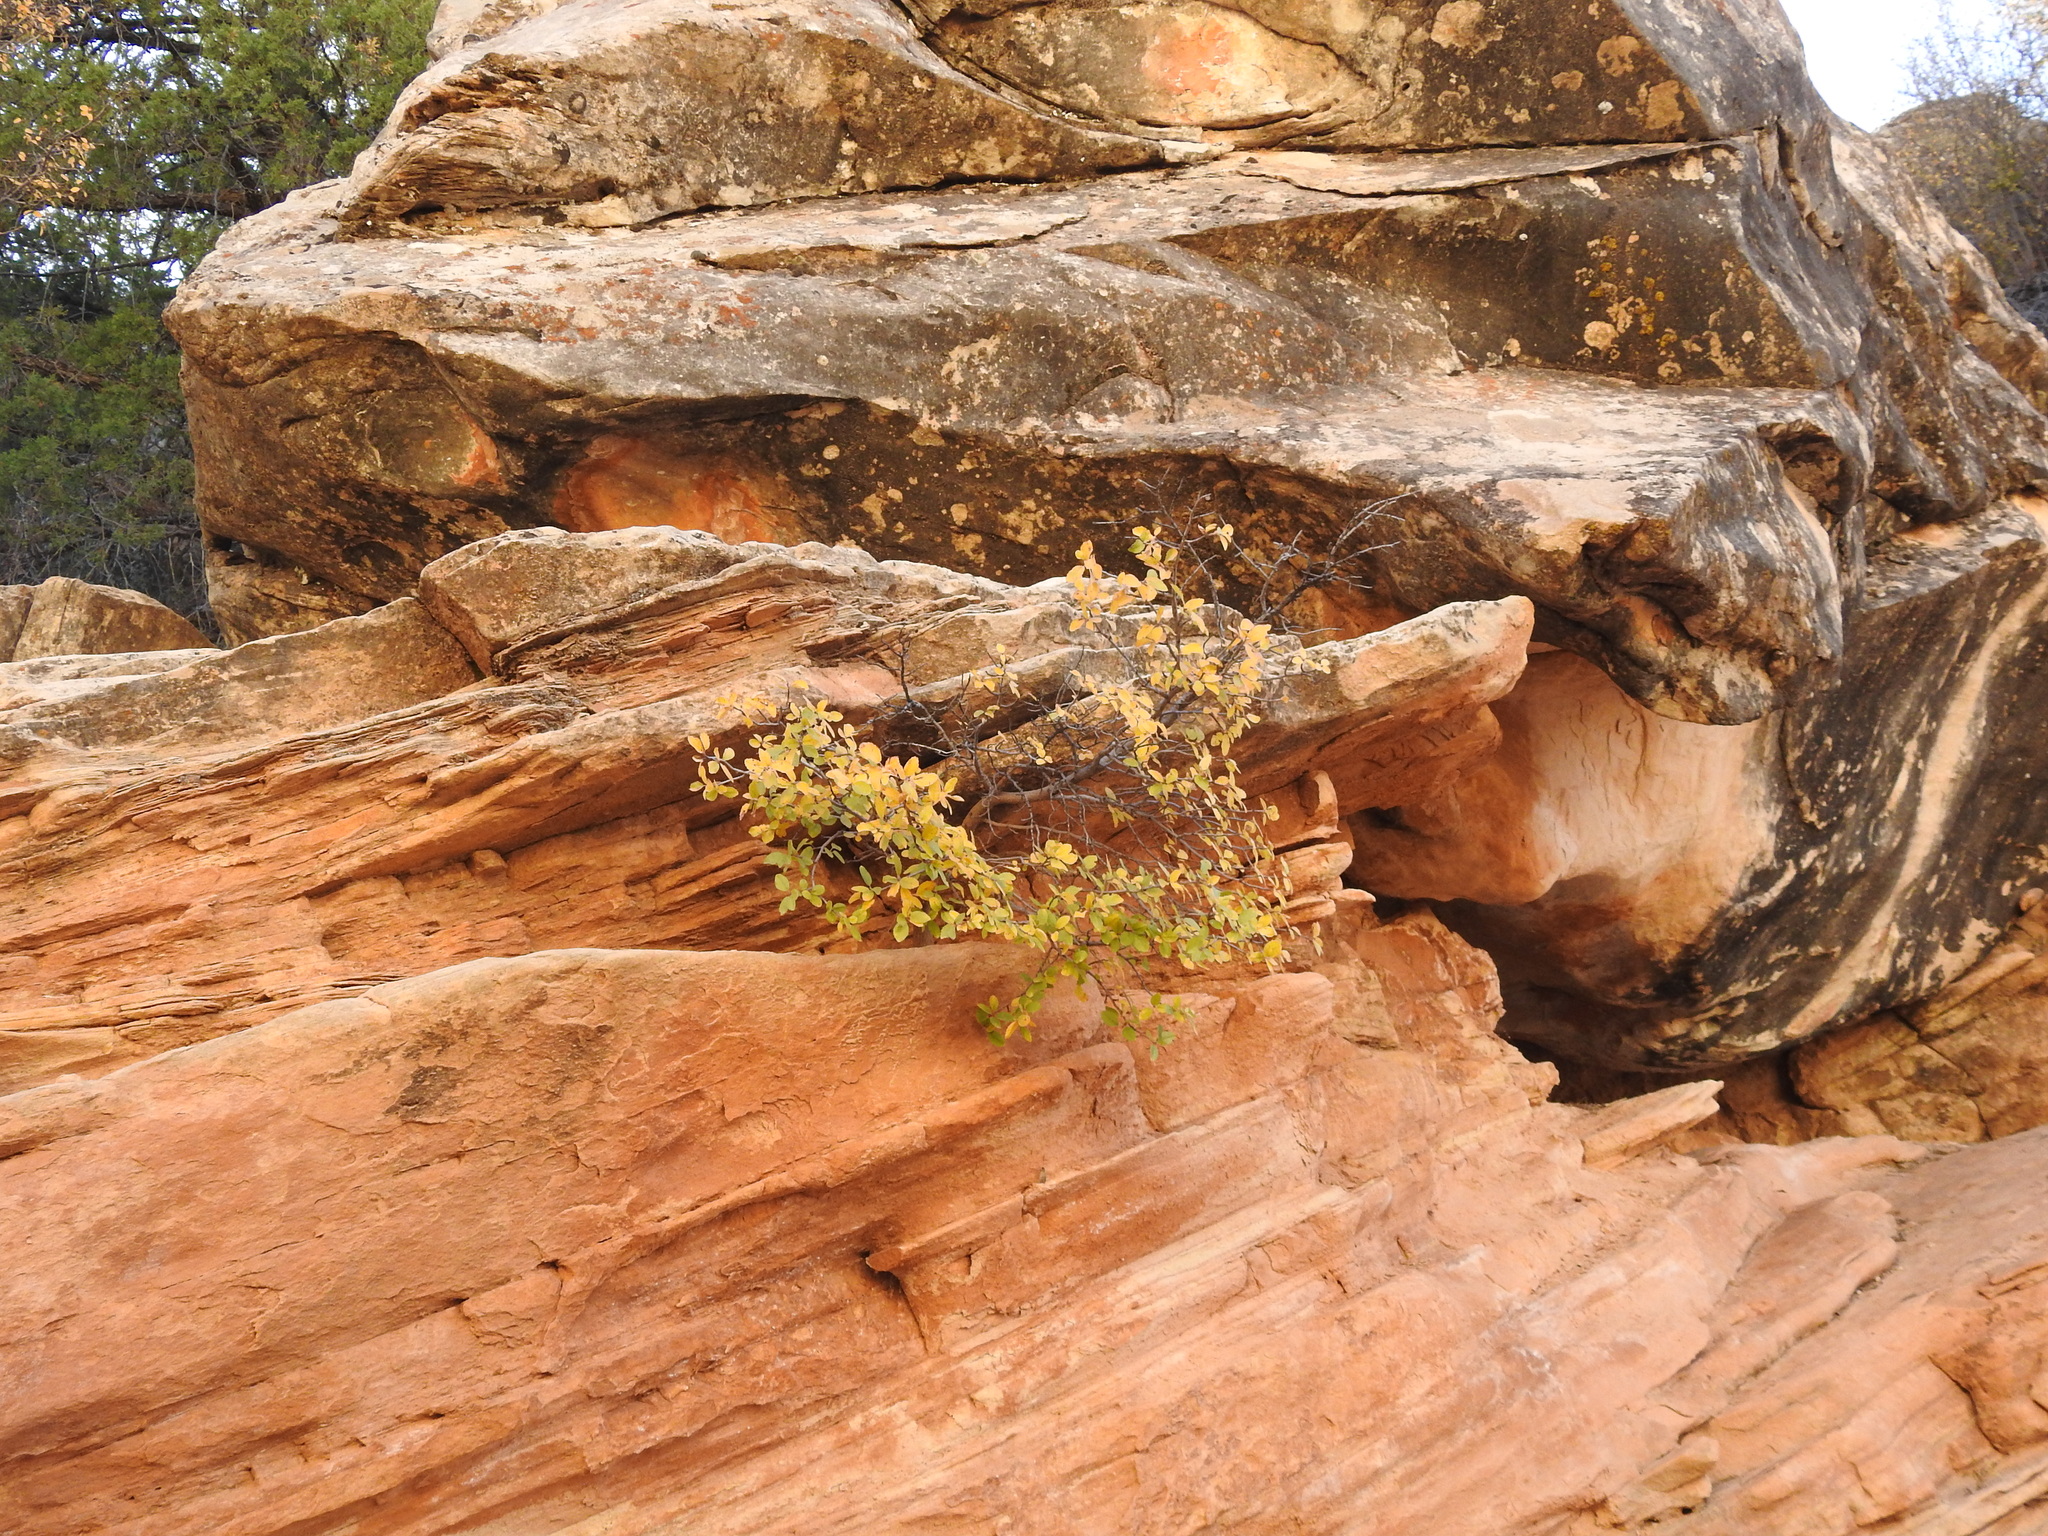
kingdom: Plantae
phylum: Tracheophyta
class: Magnoliopsida
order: Rosales
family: Rosaceae
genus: Amelanchier
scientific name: Amelanchier utahensis
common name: Utah serviceberry
